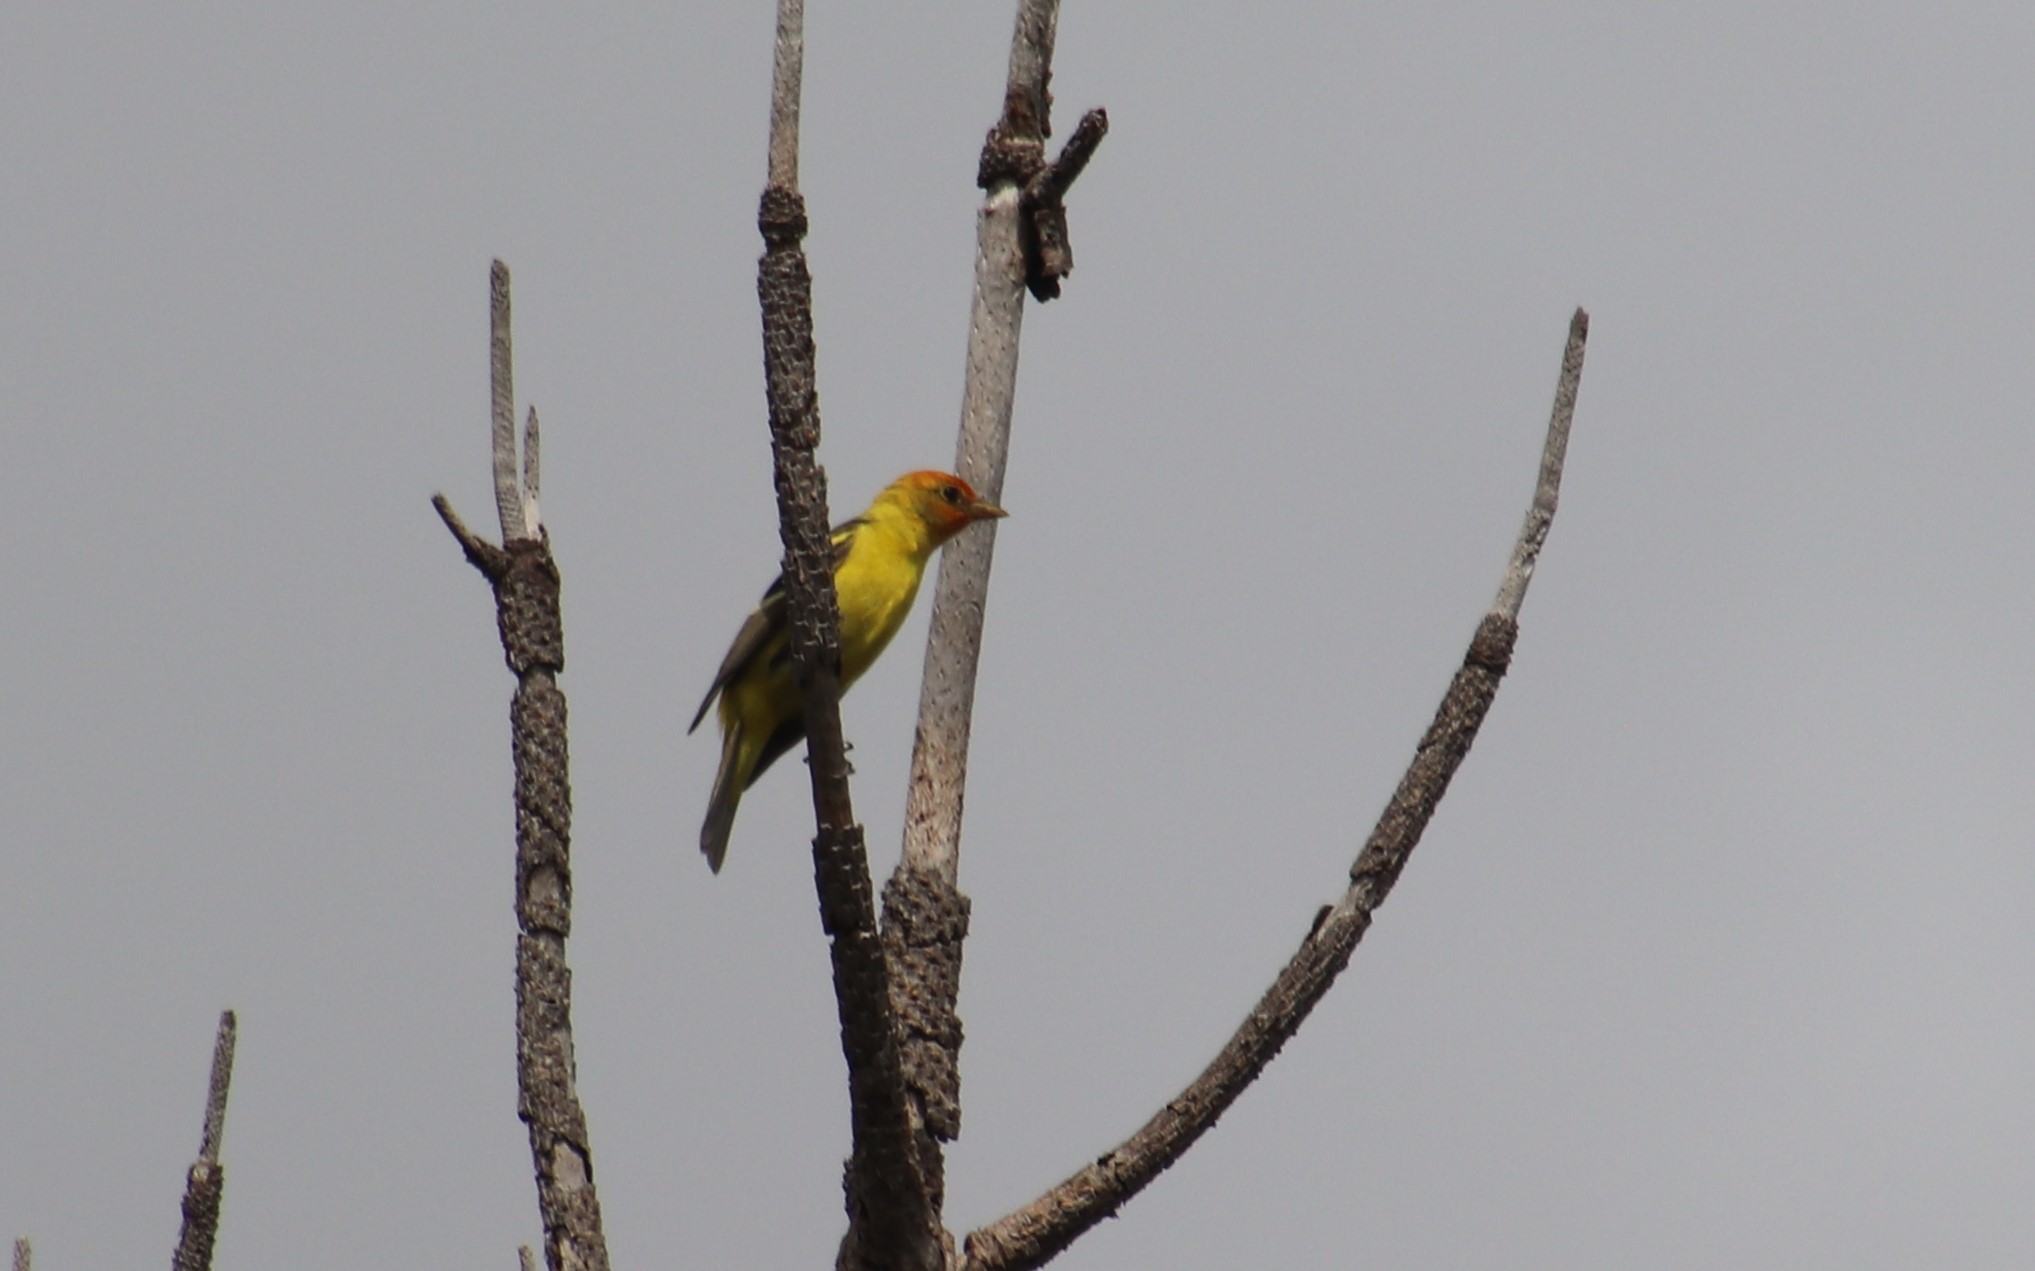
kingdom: Animalia
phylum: Chordata
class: Aves
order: Passeriformes
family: Cardinalidae
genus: Piranga
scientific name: Piranga ludoviciana
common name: Western tanager
